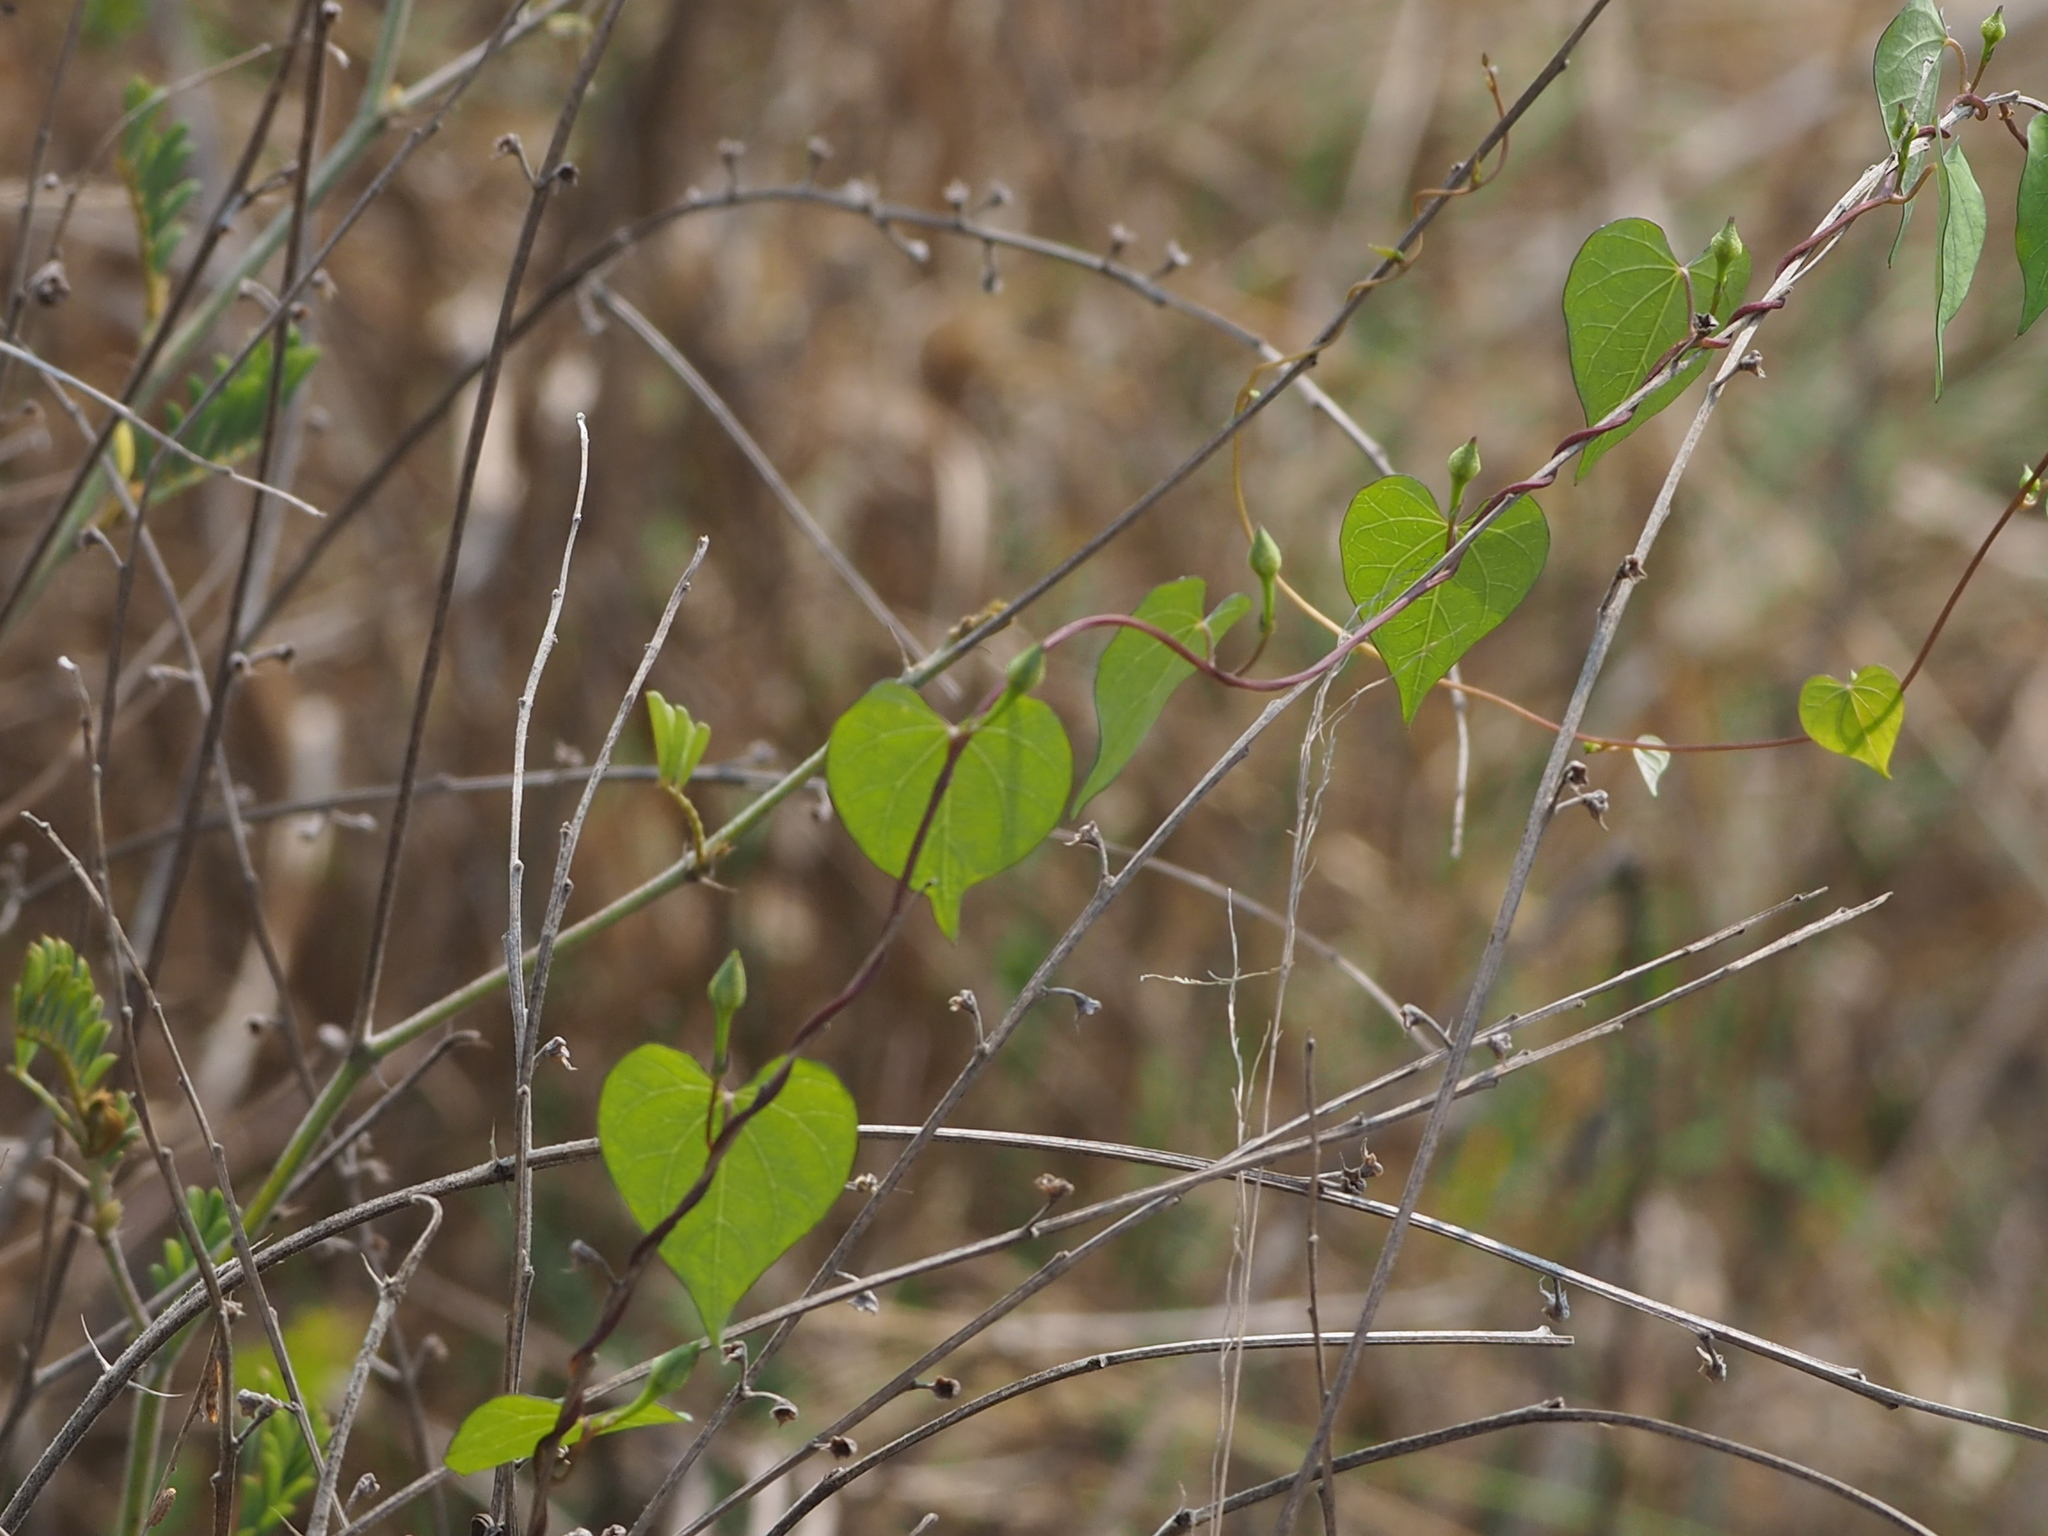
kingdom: Plantae
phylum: Tracheophyta
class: Magnoliopsida
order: Solanales
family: Convolvulaceae
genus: Ipomoea
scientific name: Ipomoea obscura
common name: Obscure morning-glory
